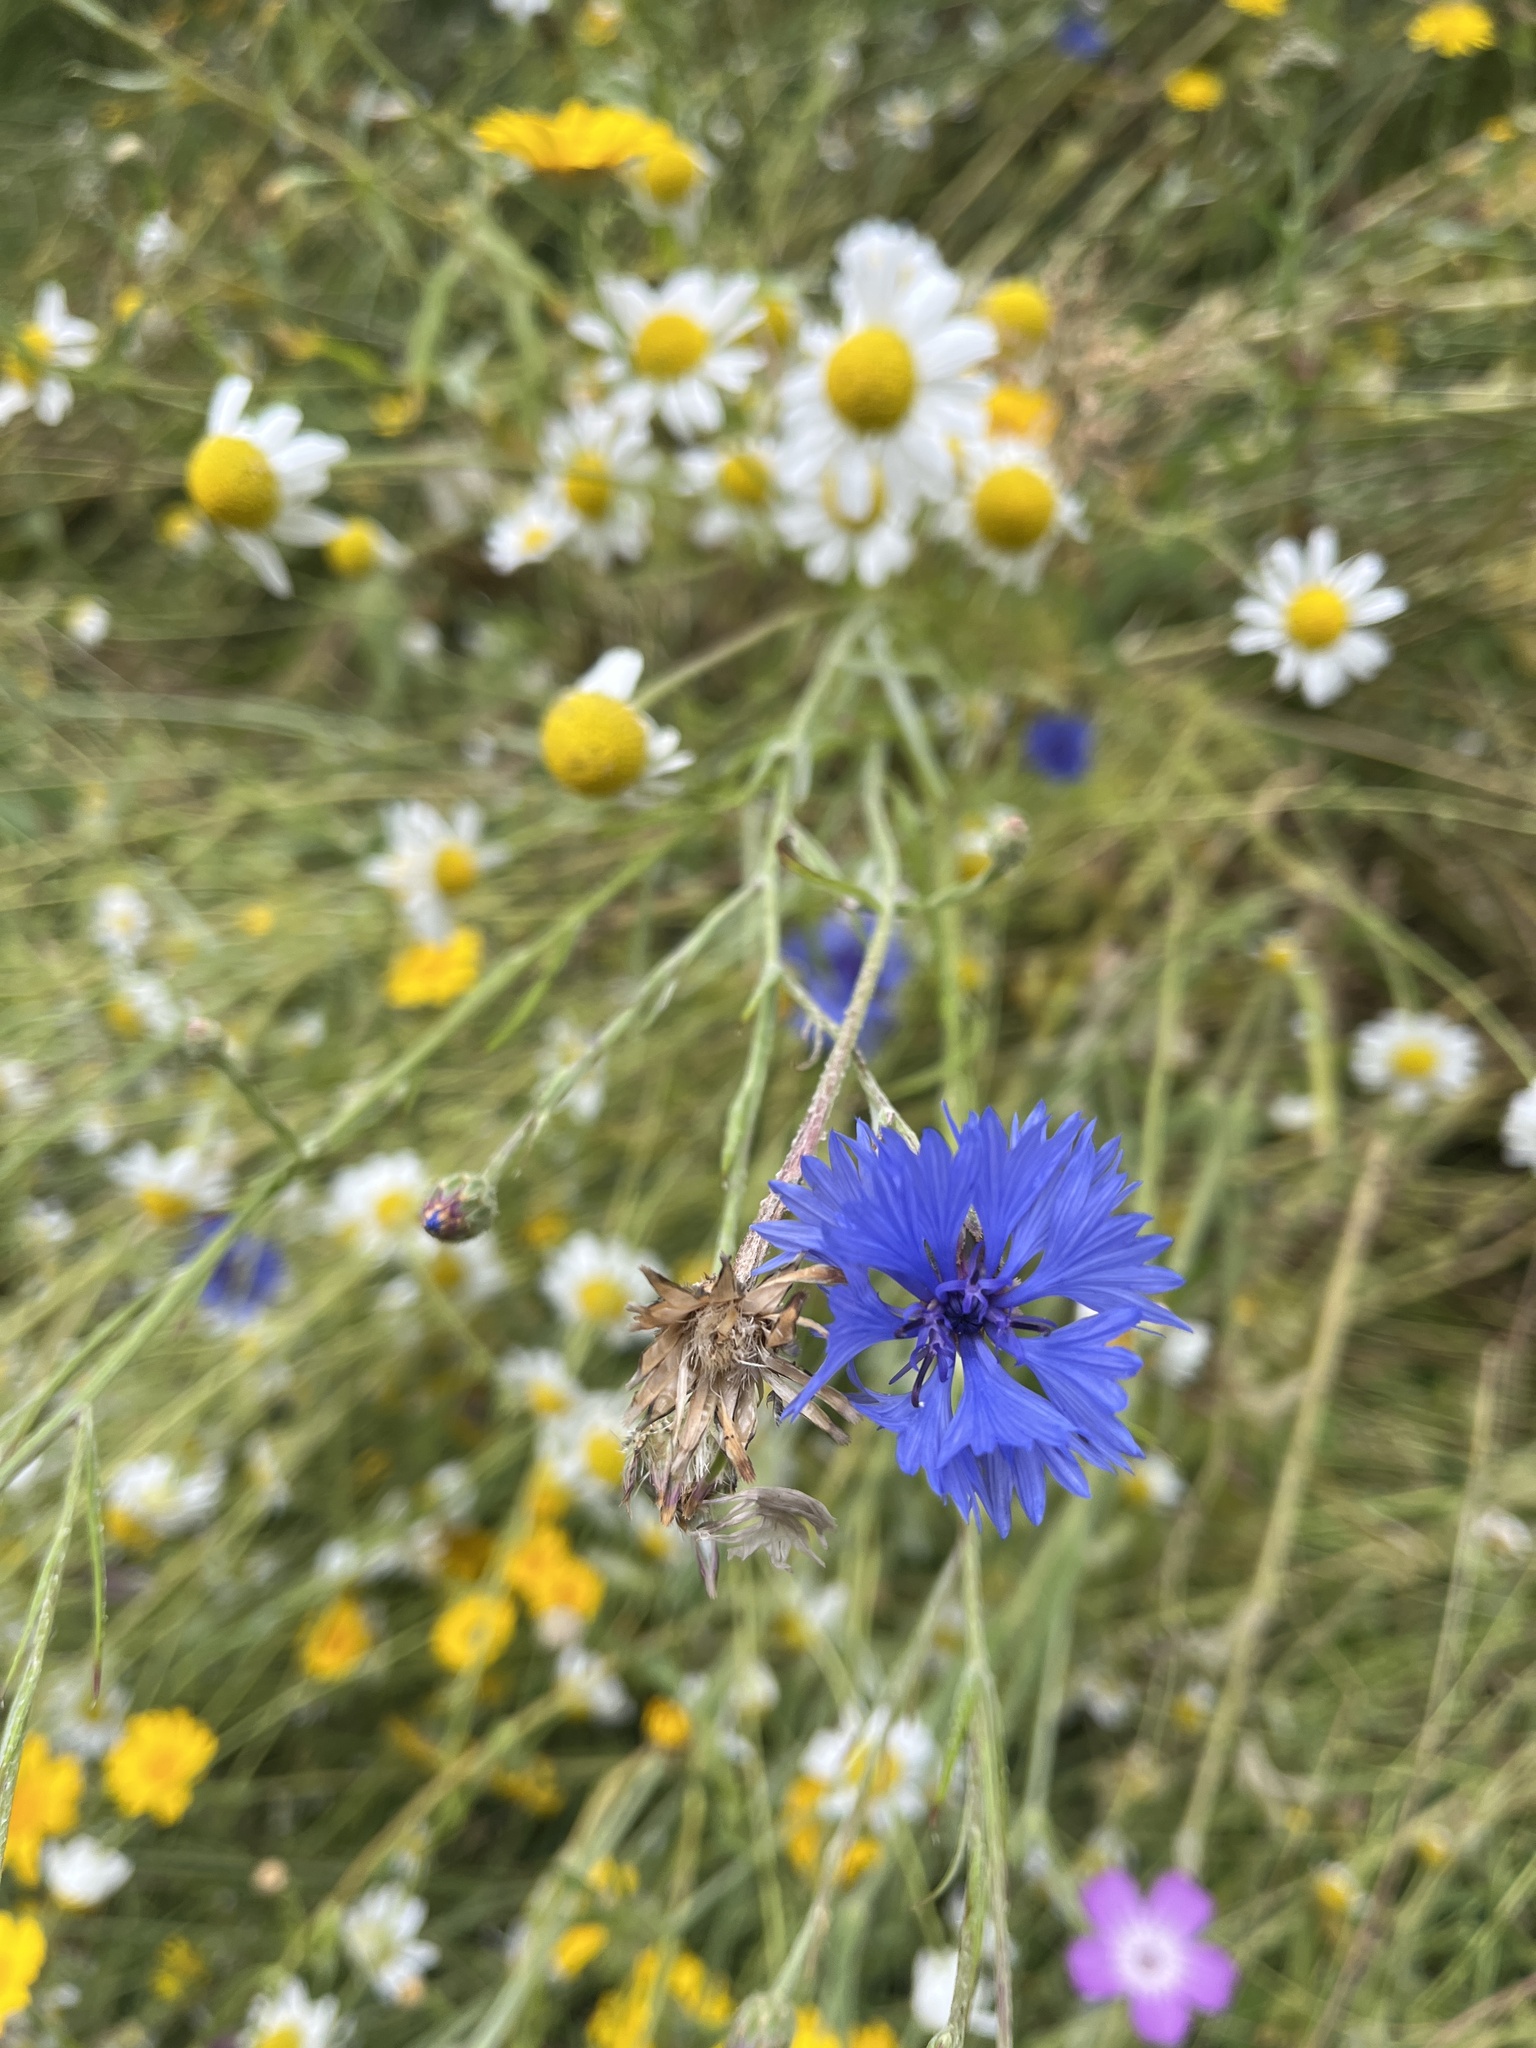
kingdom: Plantae
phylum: Tracheophyta
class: Magnoliopsida
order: Asterales
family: Asteraceae
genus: Centaurea
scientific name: Centaurea cyanus
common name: Cornflower
